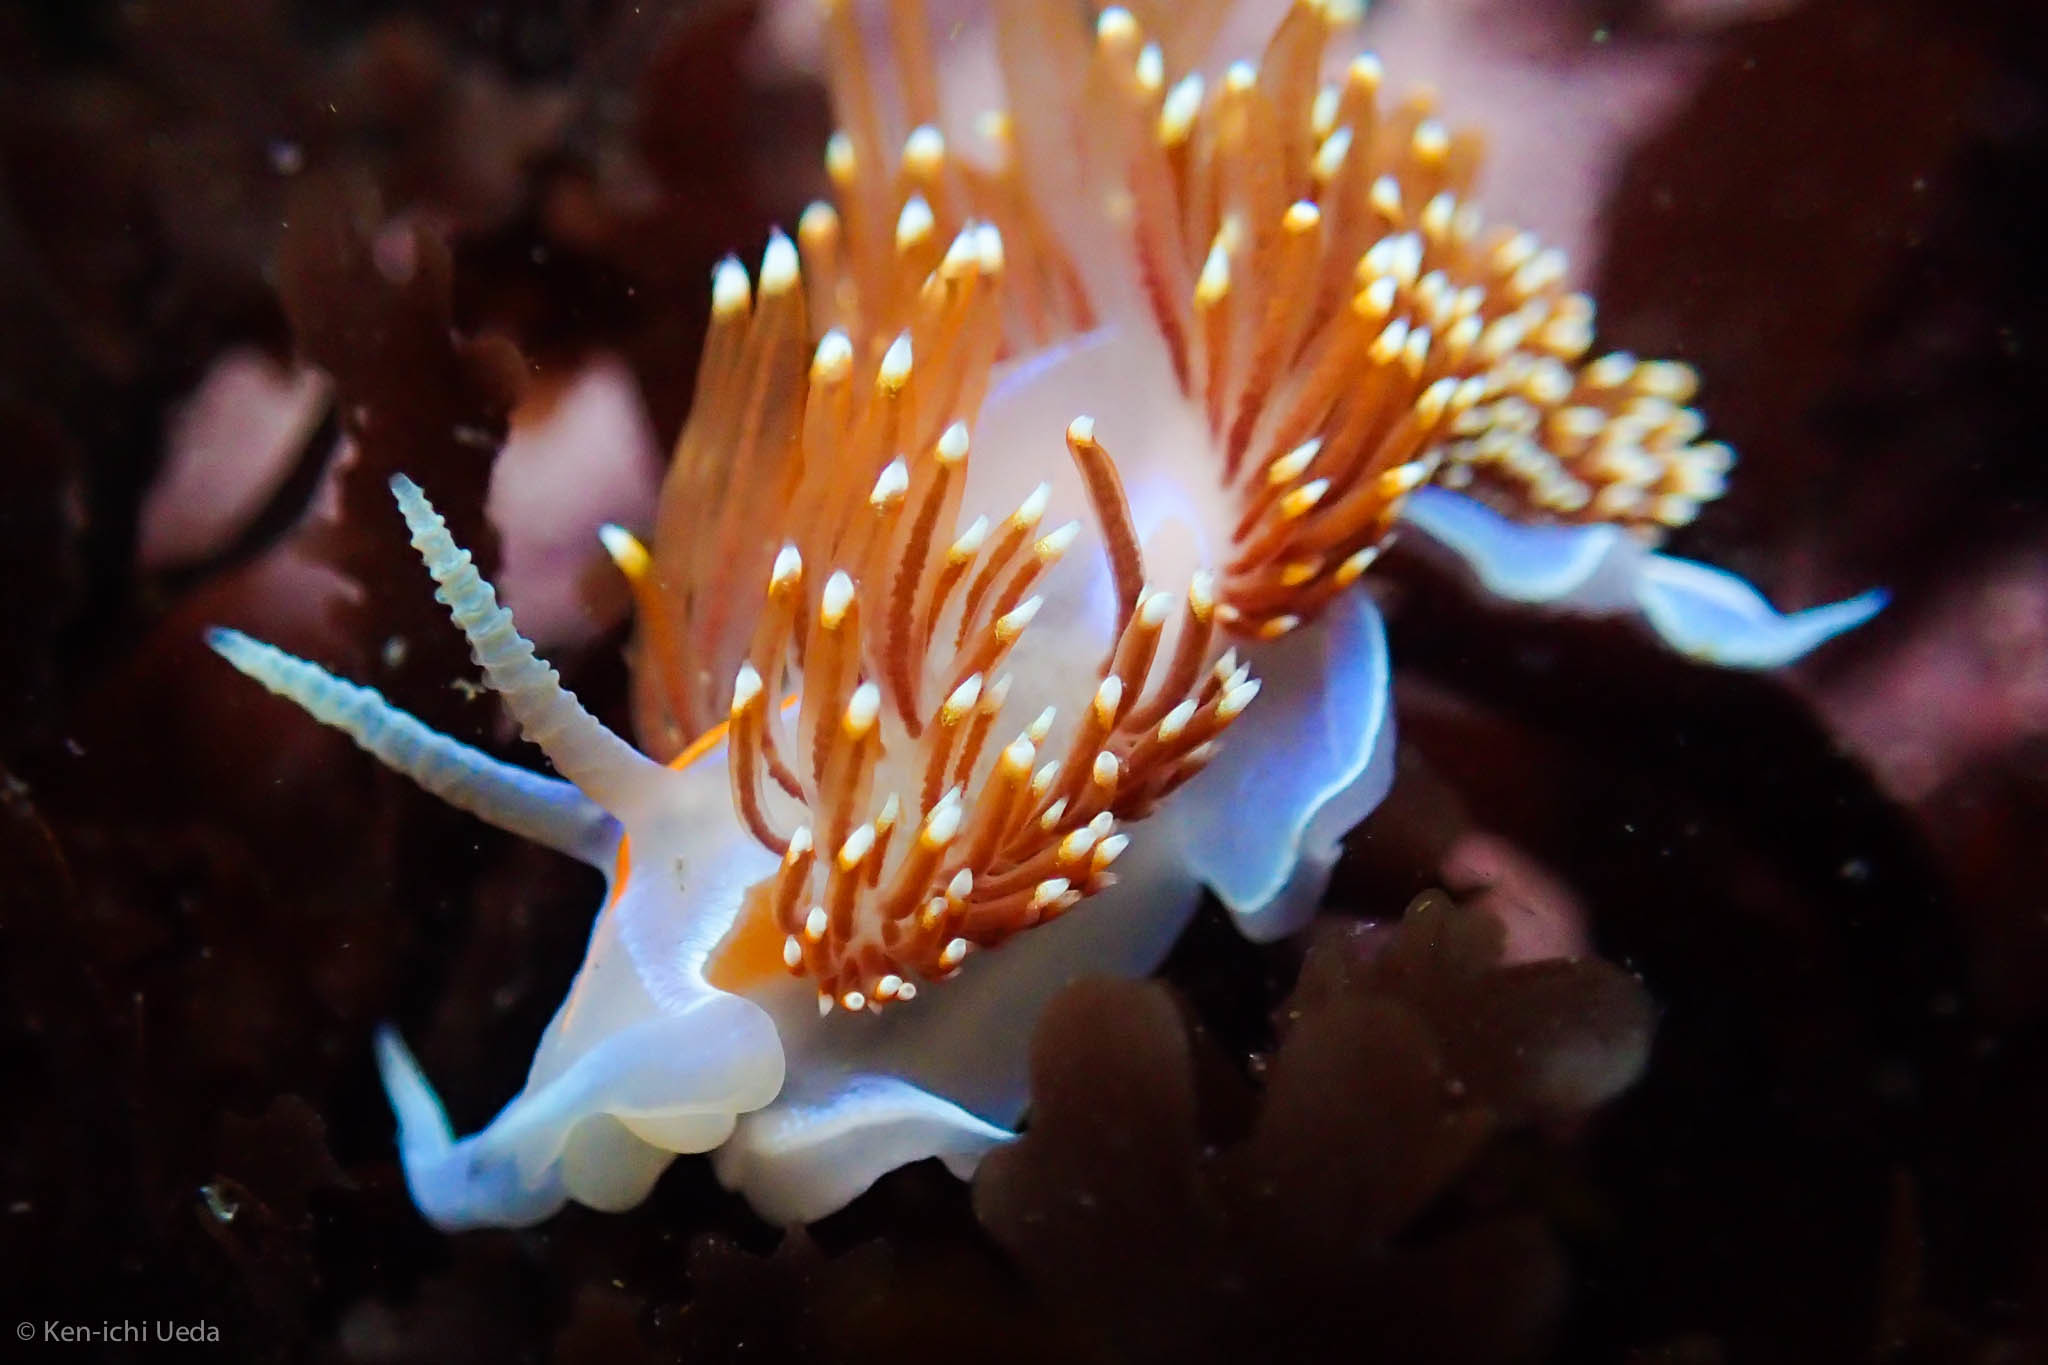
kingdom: Animalia
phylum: Mollusca
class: Gastropoda
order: Nudibranchia
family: Myrrhinidae
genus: Hermissenda
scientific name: Hermissenda opalescens
